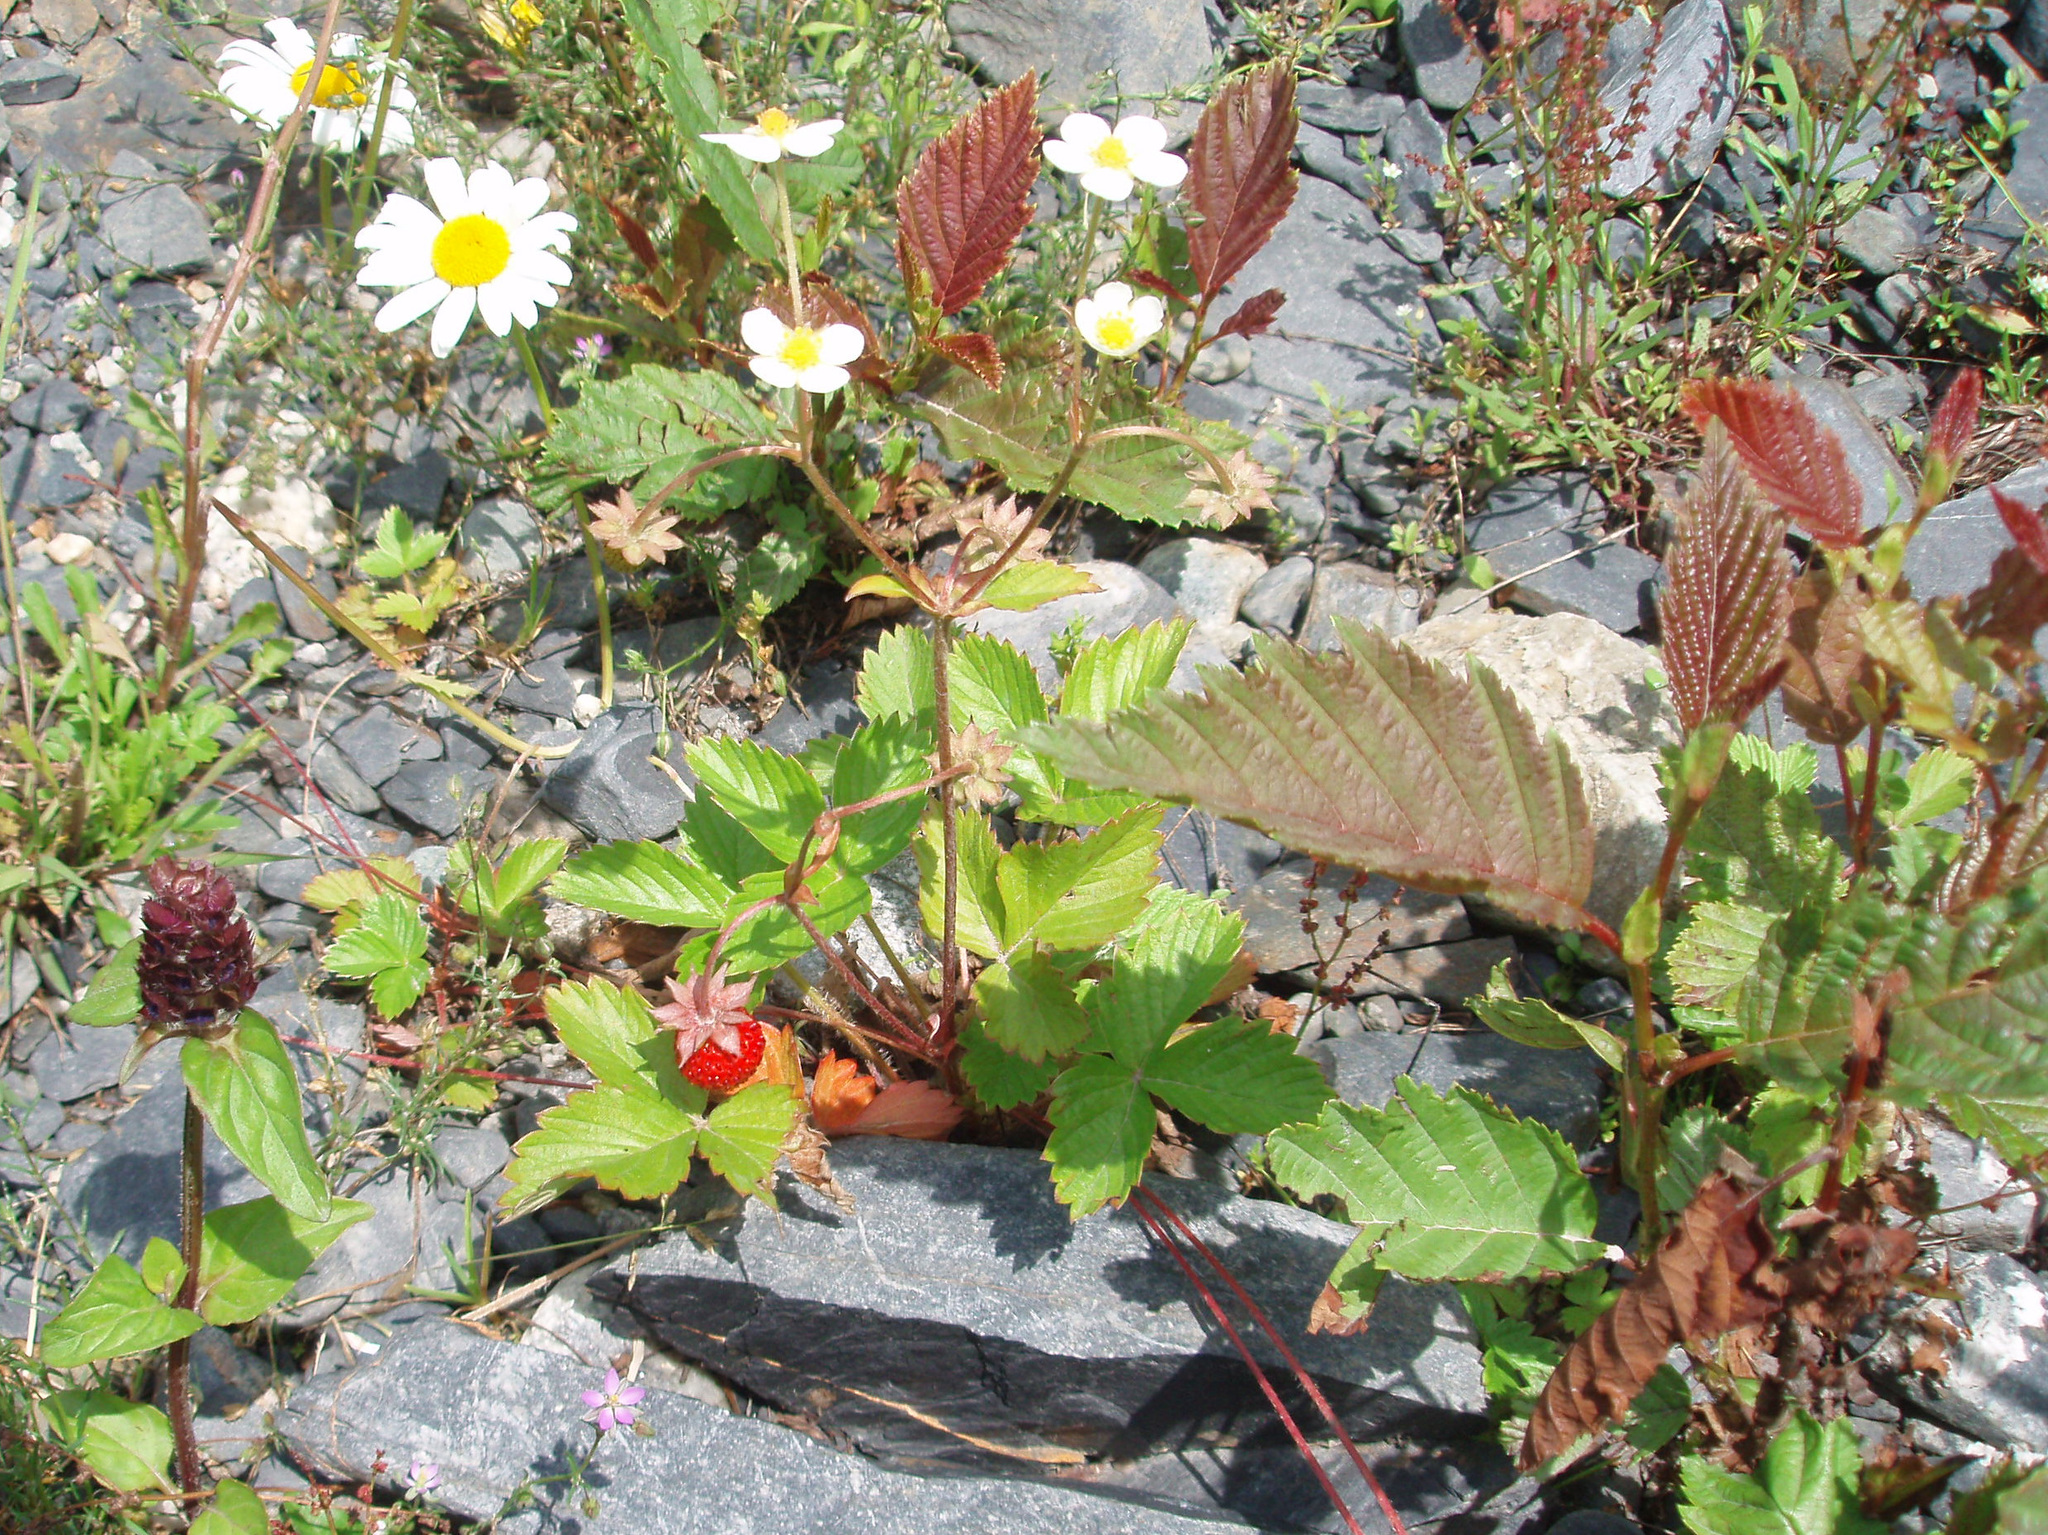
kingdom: Plantae
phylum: Tracheophyta
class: Magnoliopsida
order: Rosales
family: Rosaceae
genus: Fragaria
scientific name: Fragaria vesca
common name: Wild strawberry
